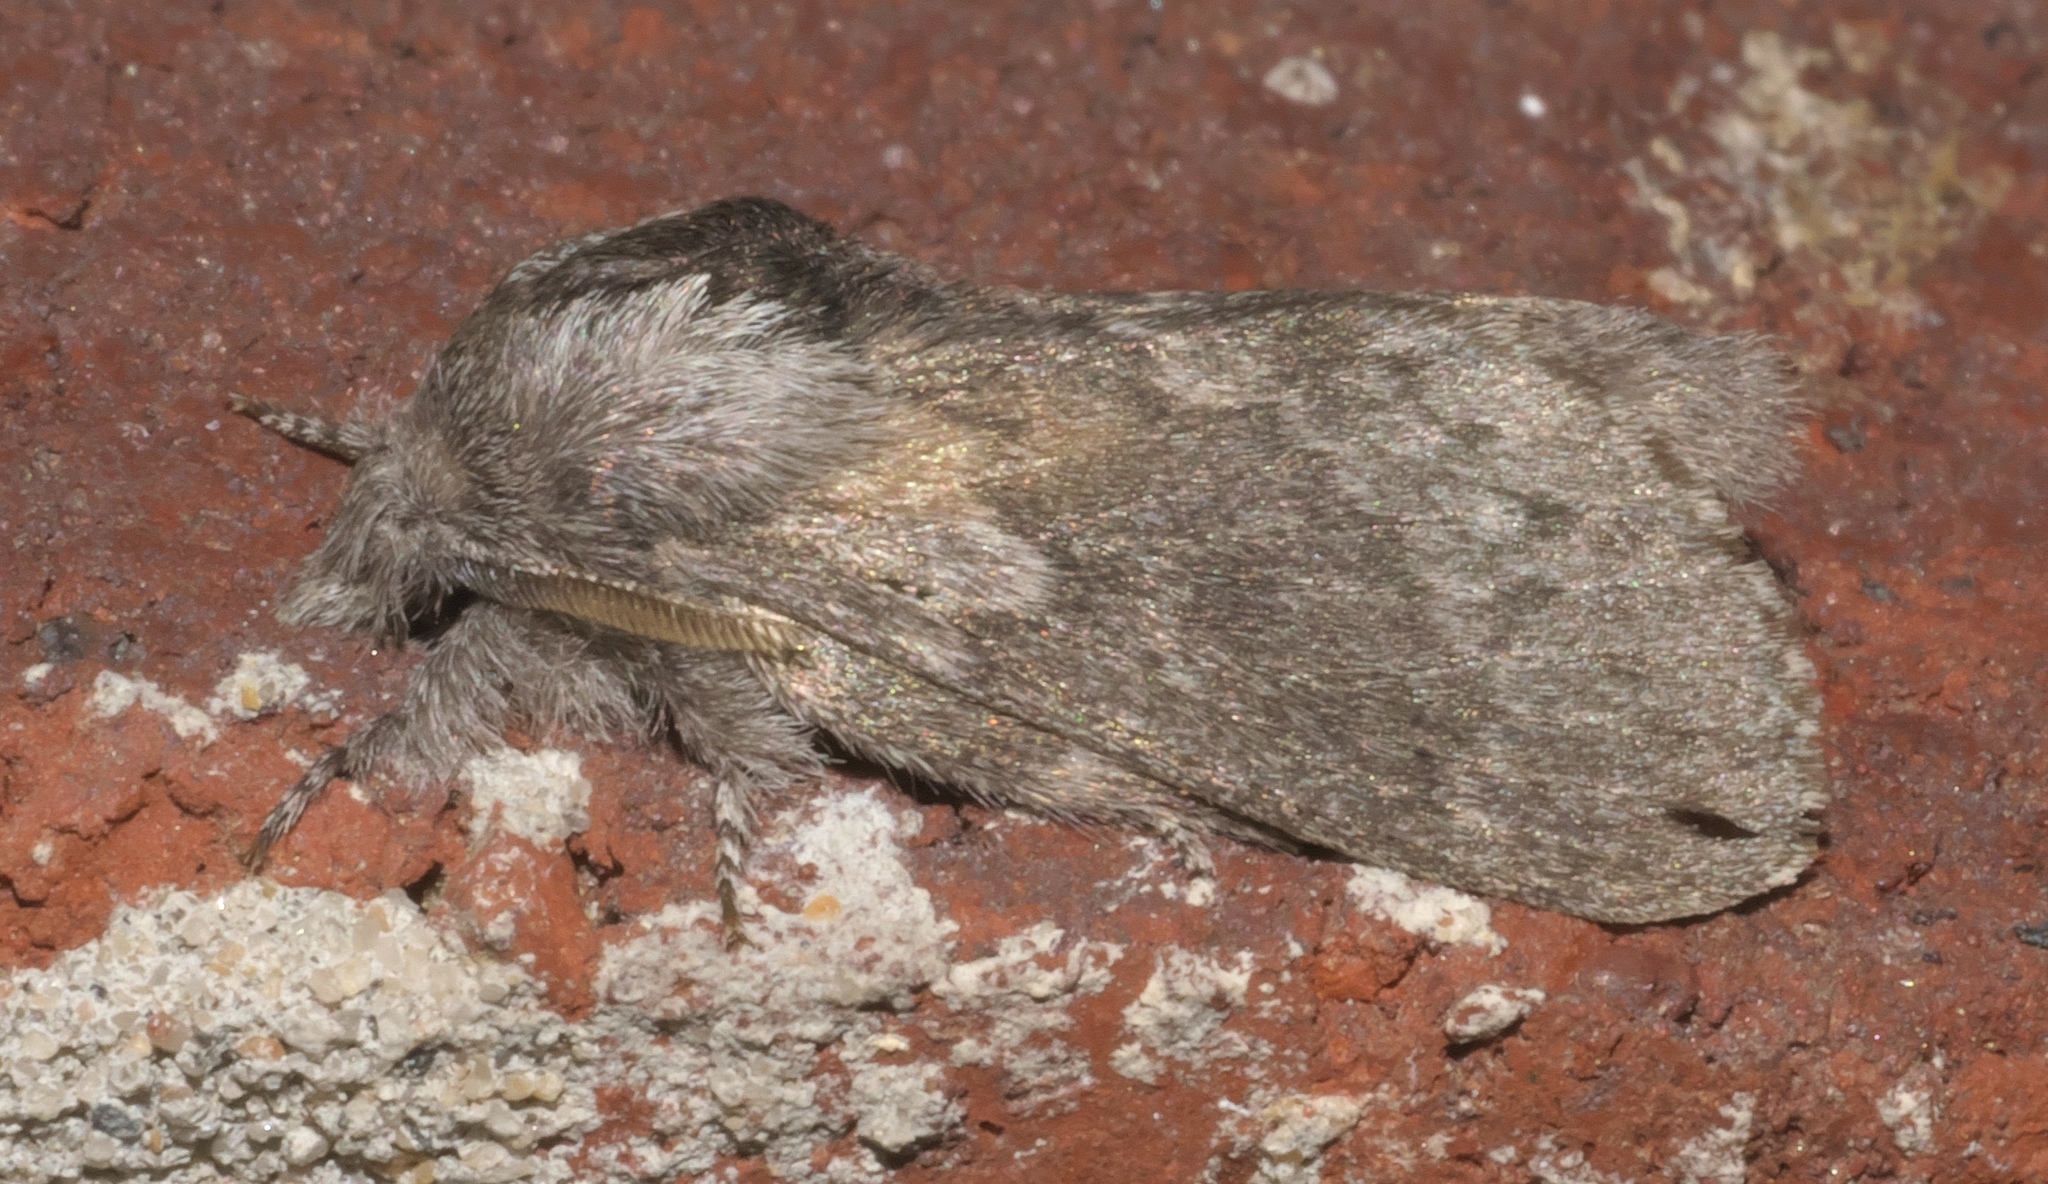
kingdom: Animalia
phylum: Arthropoda
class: Insecta
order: Lepidoptera
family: Lasiocampidae
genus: Heteropacha
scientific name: Heteropacha rileyana
